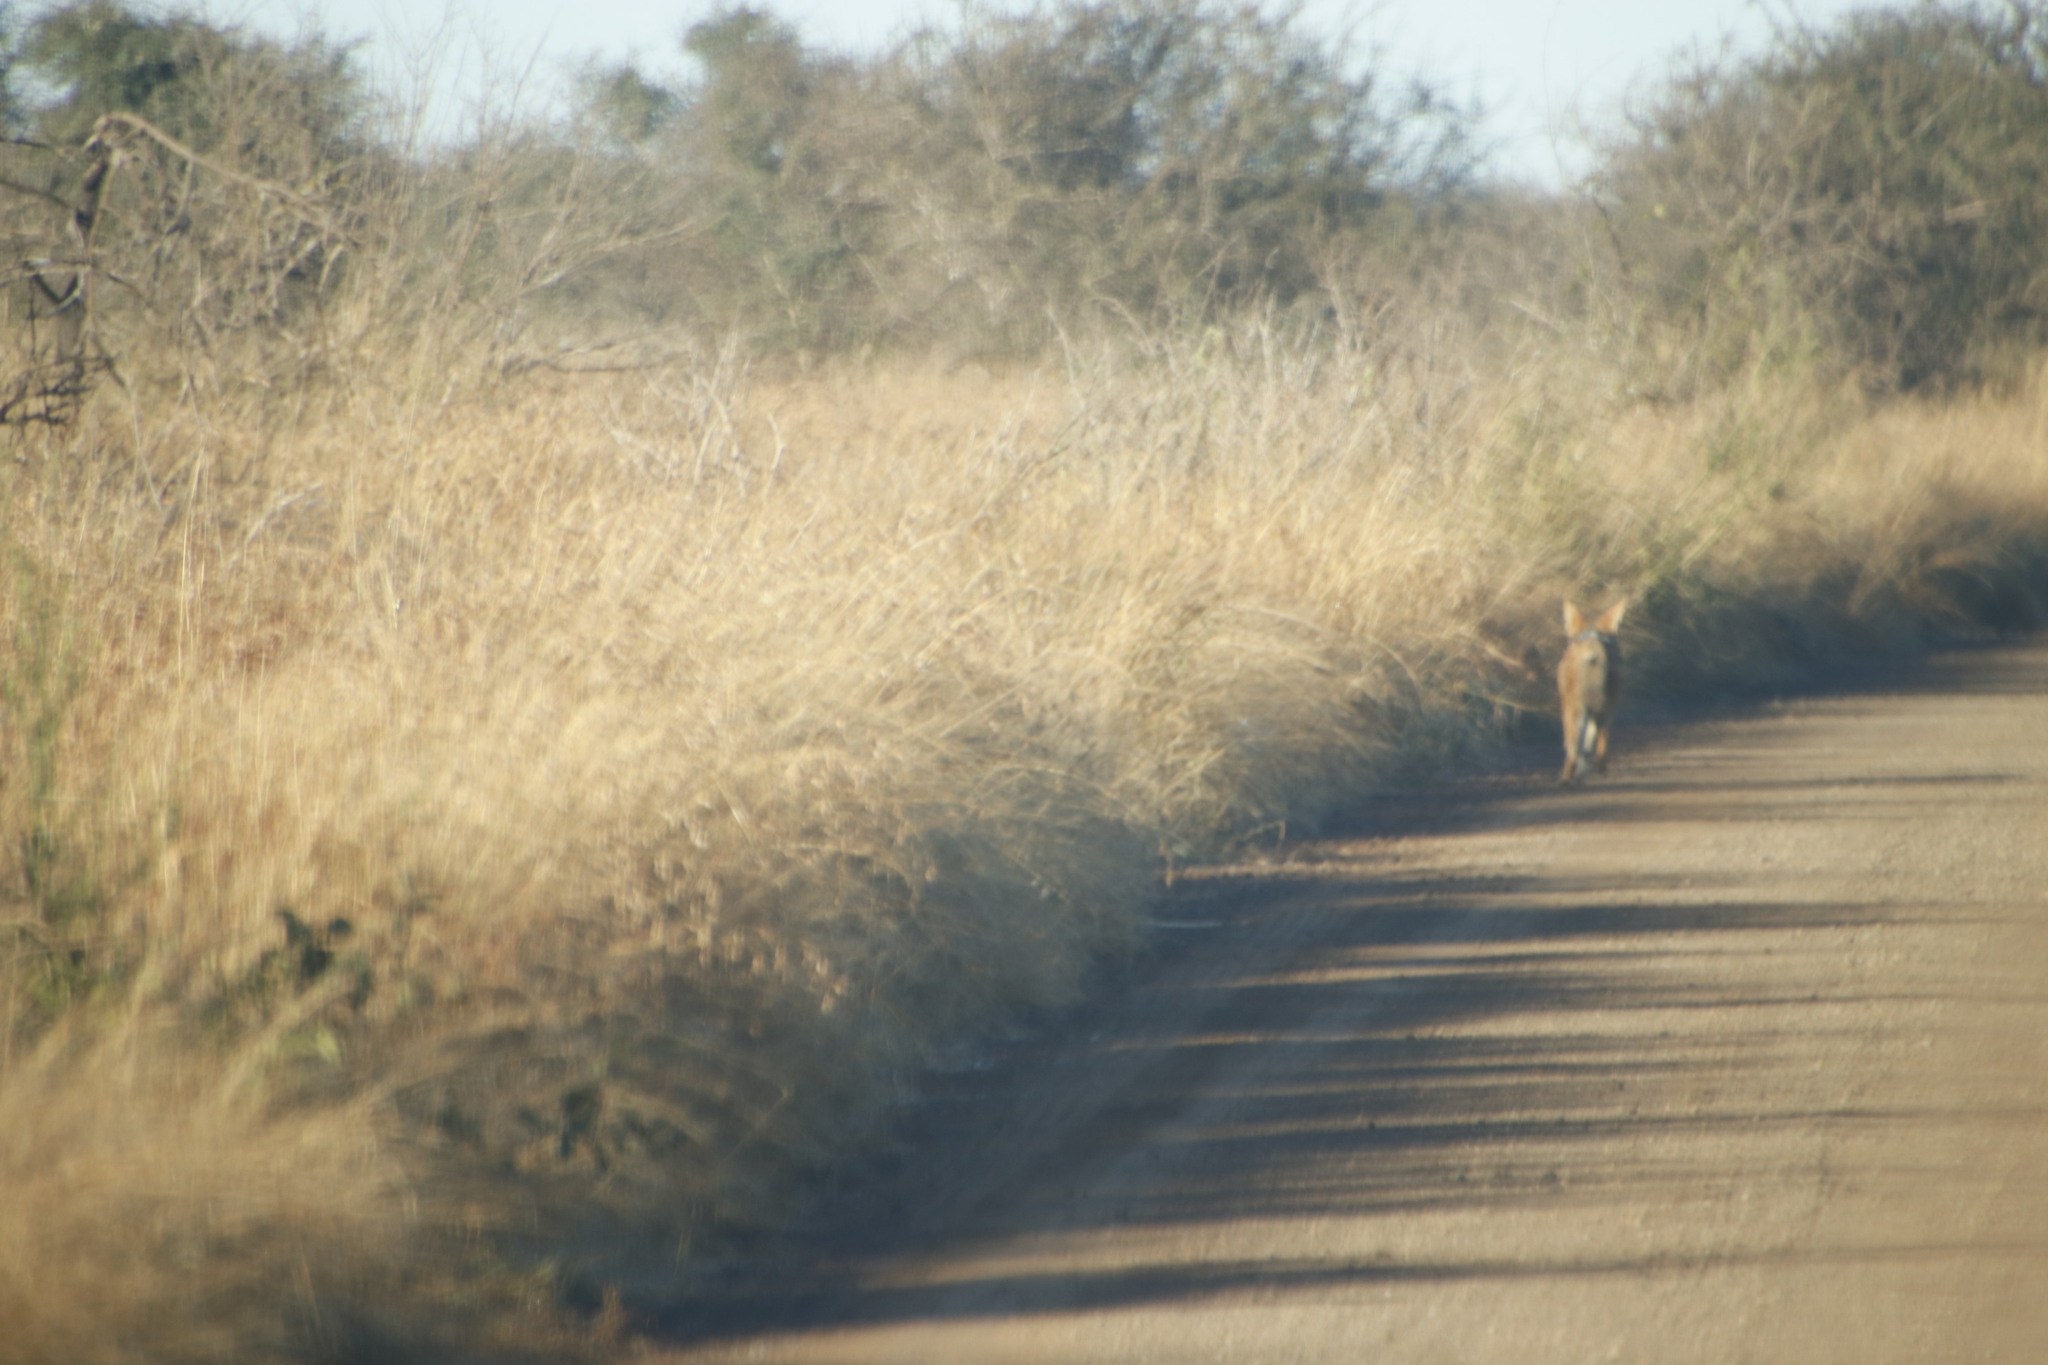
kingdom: Animalia
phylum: Chordata
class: Mammalia
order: Carnivora
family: Canidae
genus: Lupulella
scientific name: Lupulella
